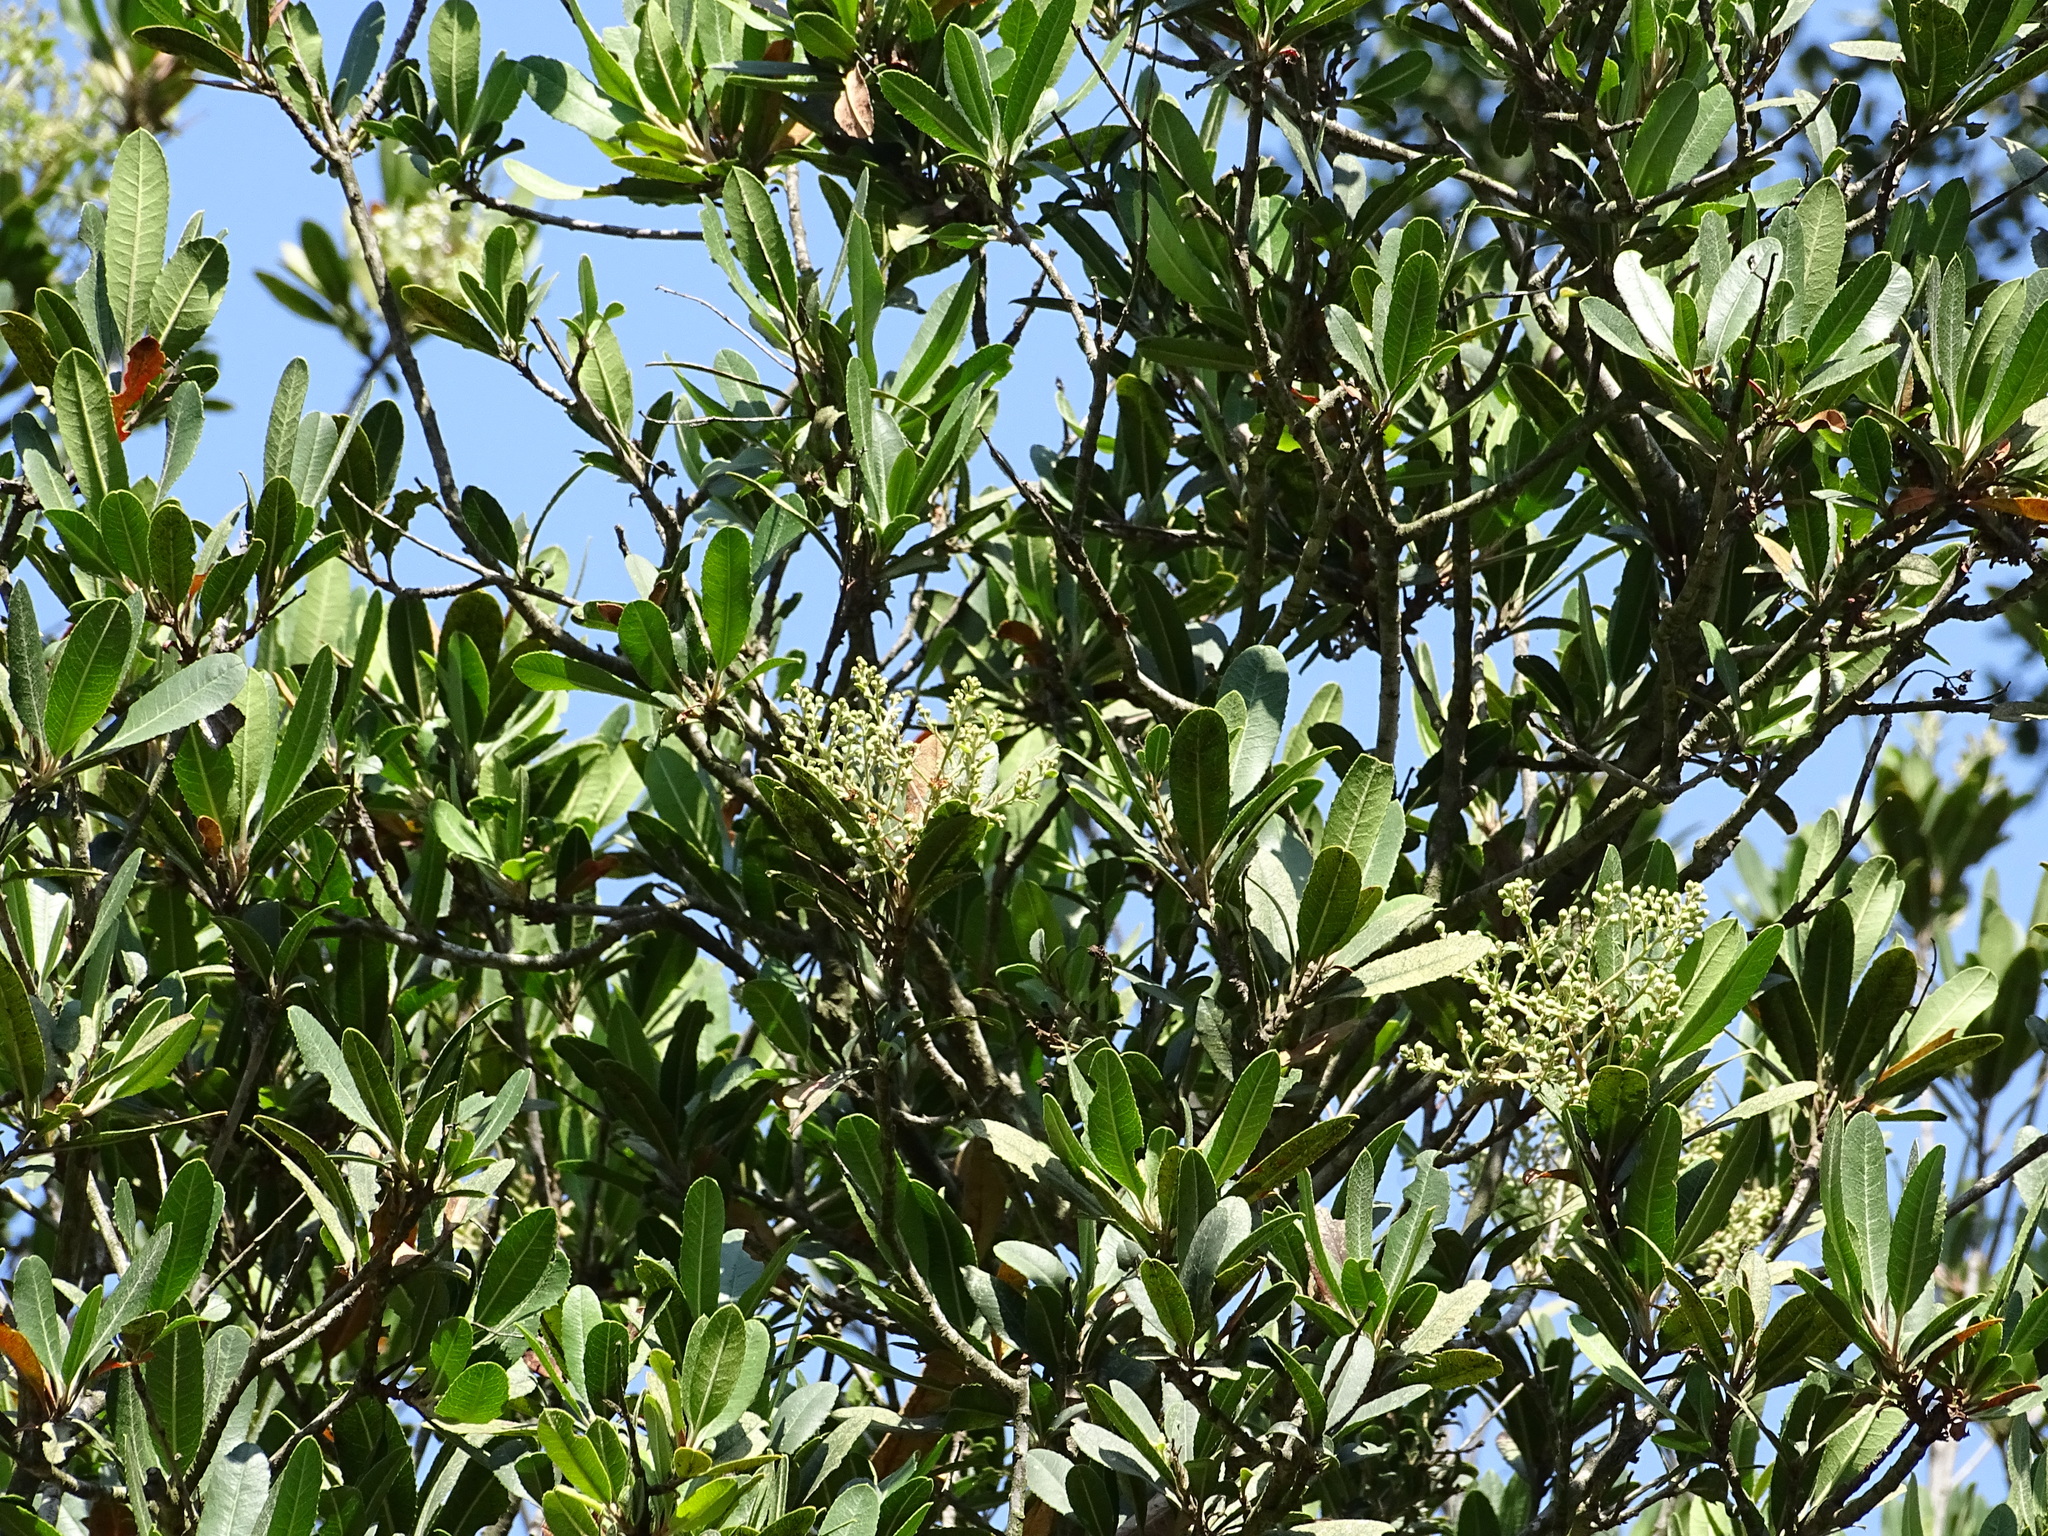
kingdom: Plantae
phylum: Tracheophyta
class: Magnoliopsida
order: Rosales
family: Rosaceae
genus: Heteromeles
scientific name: Heteromeles arbutifolia
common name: California-holly
